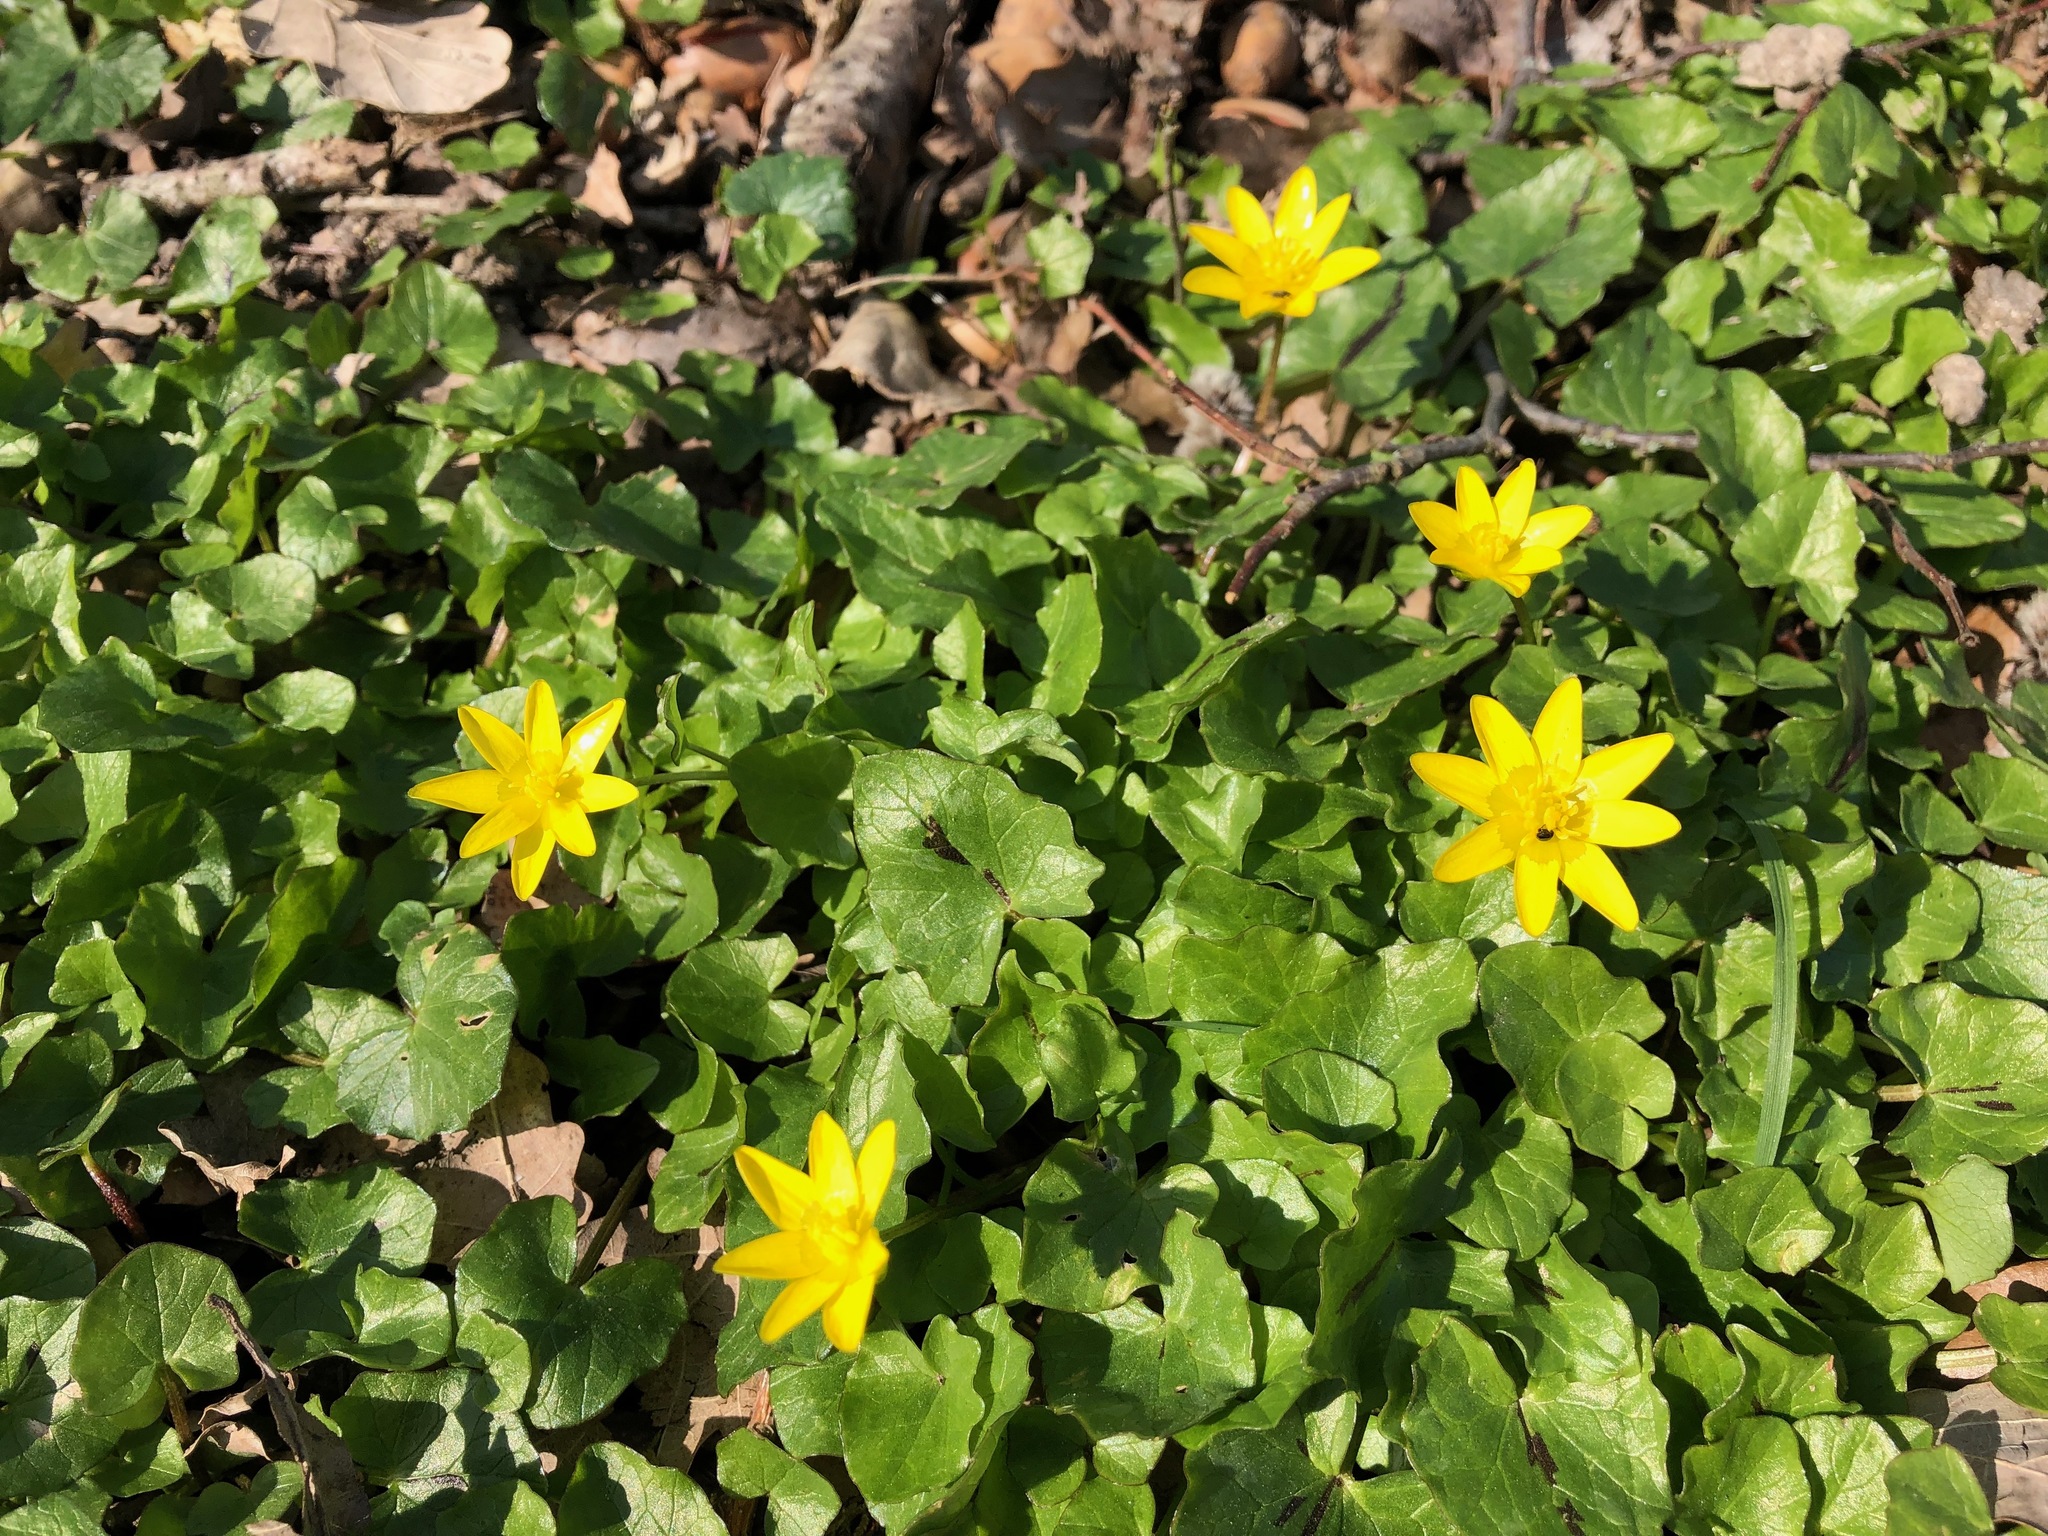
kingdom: Plantae
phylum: Tracheophyta
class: Magnoliopsida
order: Ranunculales
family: Ranunculaceae
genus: Ficaria
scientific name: Ficaria verna
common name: Lesser celandine
